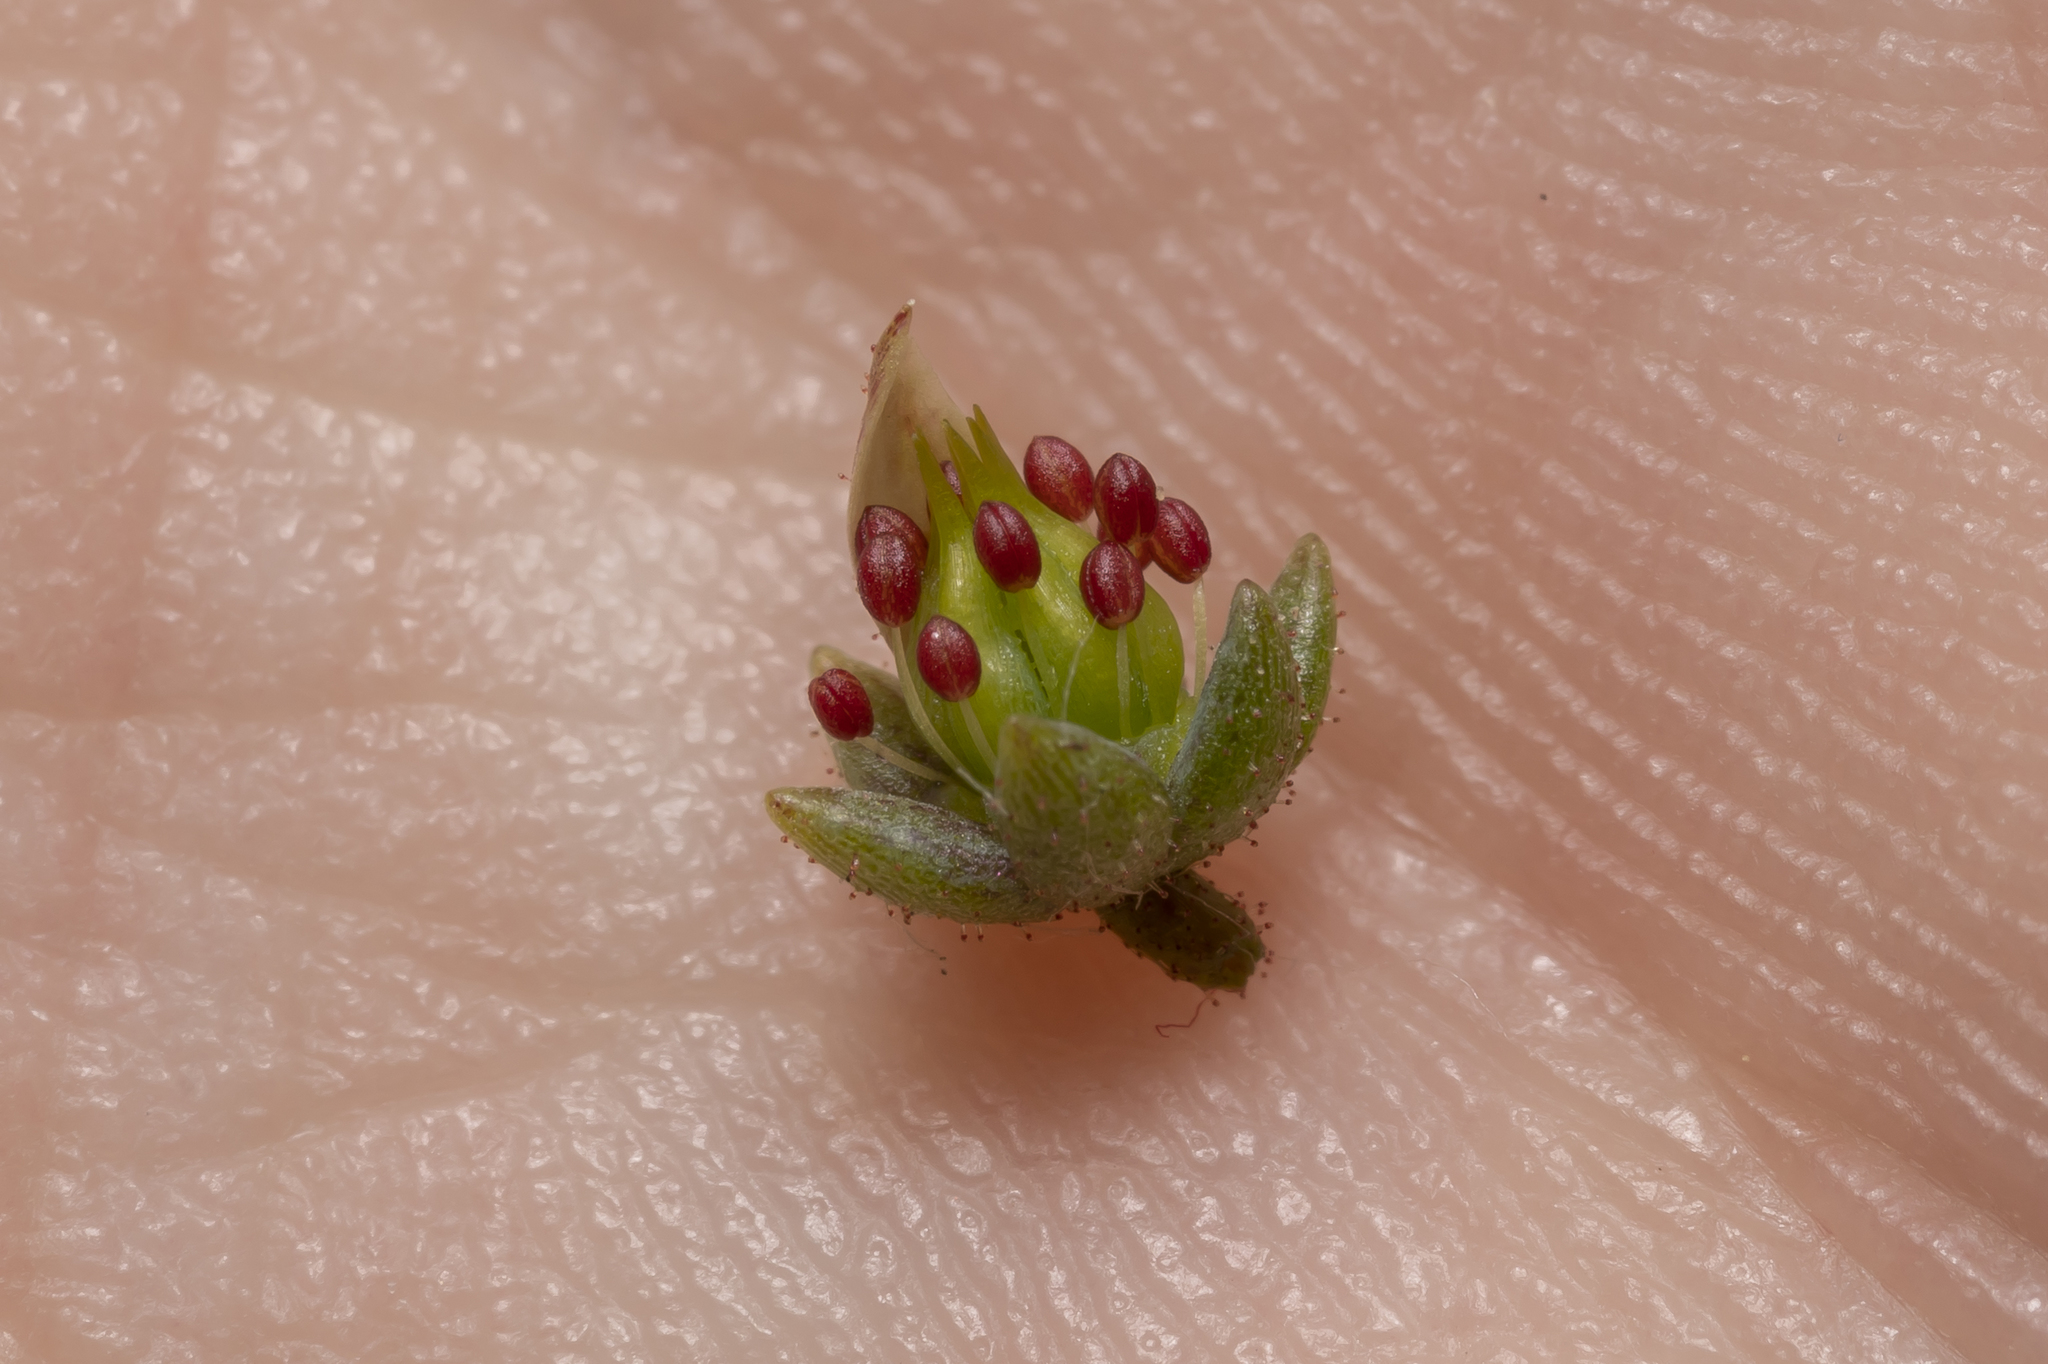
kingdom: Plantae
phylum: Tracheophyta
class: Magnoliopsida
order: Saxifragales
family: Crassulaceae
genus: Sedum
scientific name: Sedum dasyphyllum
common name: Thick-leaf stonecrop
